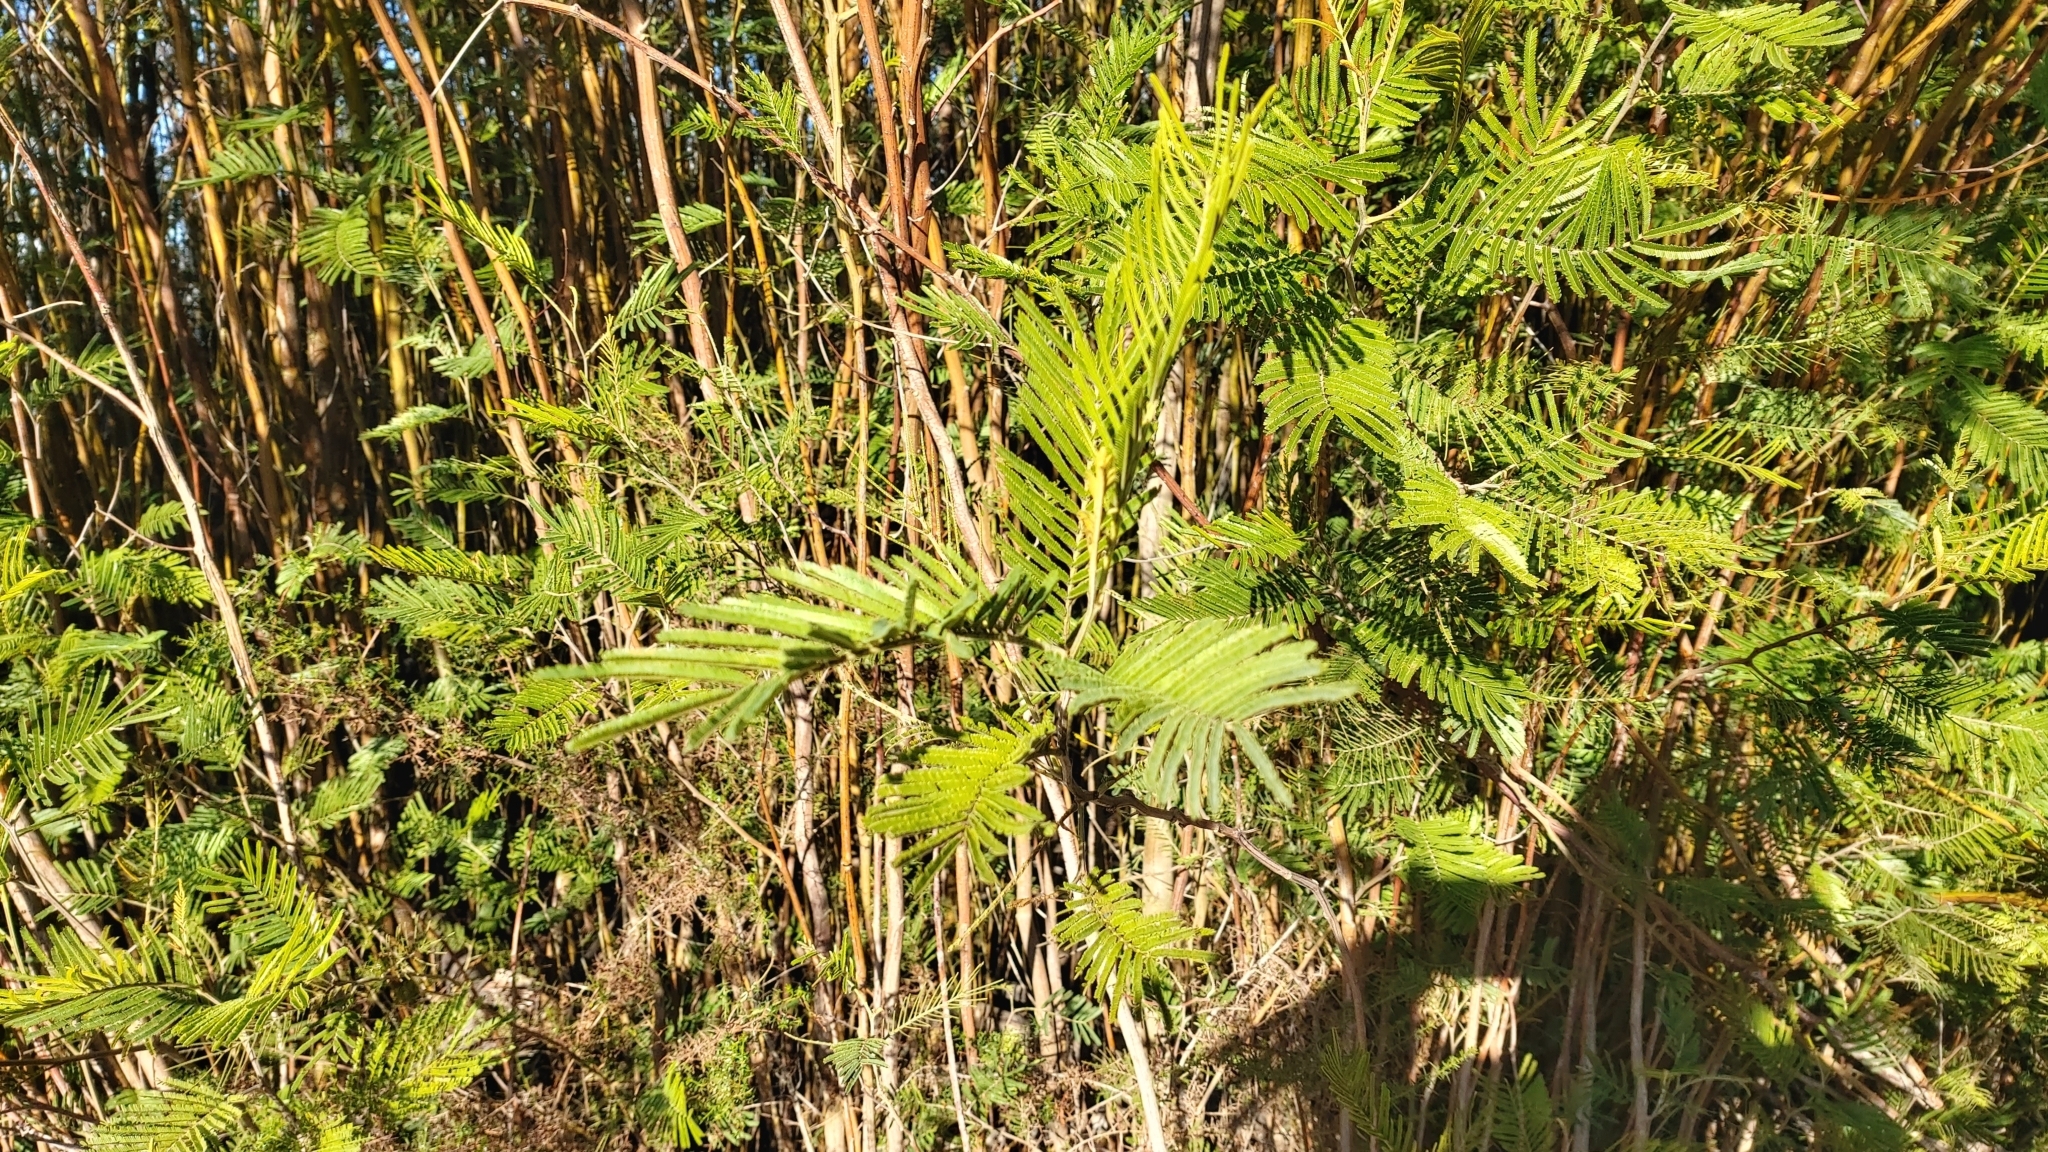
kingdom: Plantae
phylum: Tracheophyta
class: Magnoliopsida
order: Fabales
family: Fabaceae
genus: Acacia
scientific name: Acacia mearnsii
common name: Black wattle
